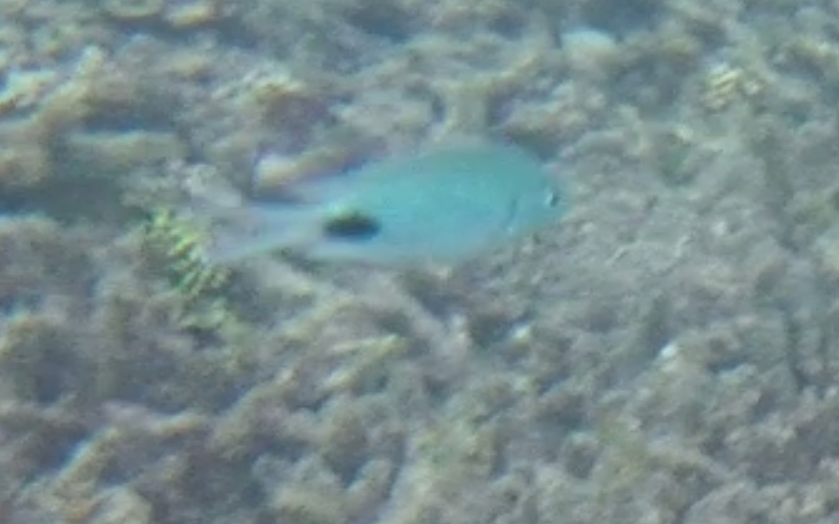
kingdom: Animalia
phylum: Chordata
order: Perciformes
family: Pomacentridae
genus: Abudefduf
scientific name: Abudefduf sparoides
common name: False-eye sergeant
